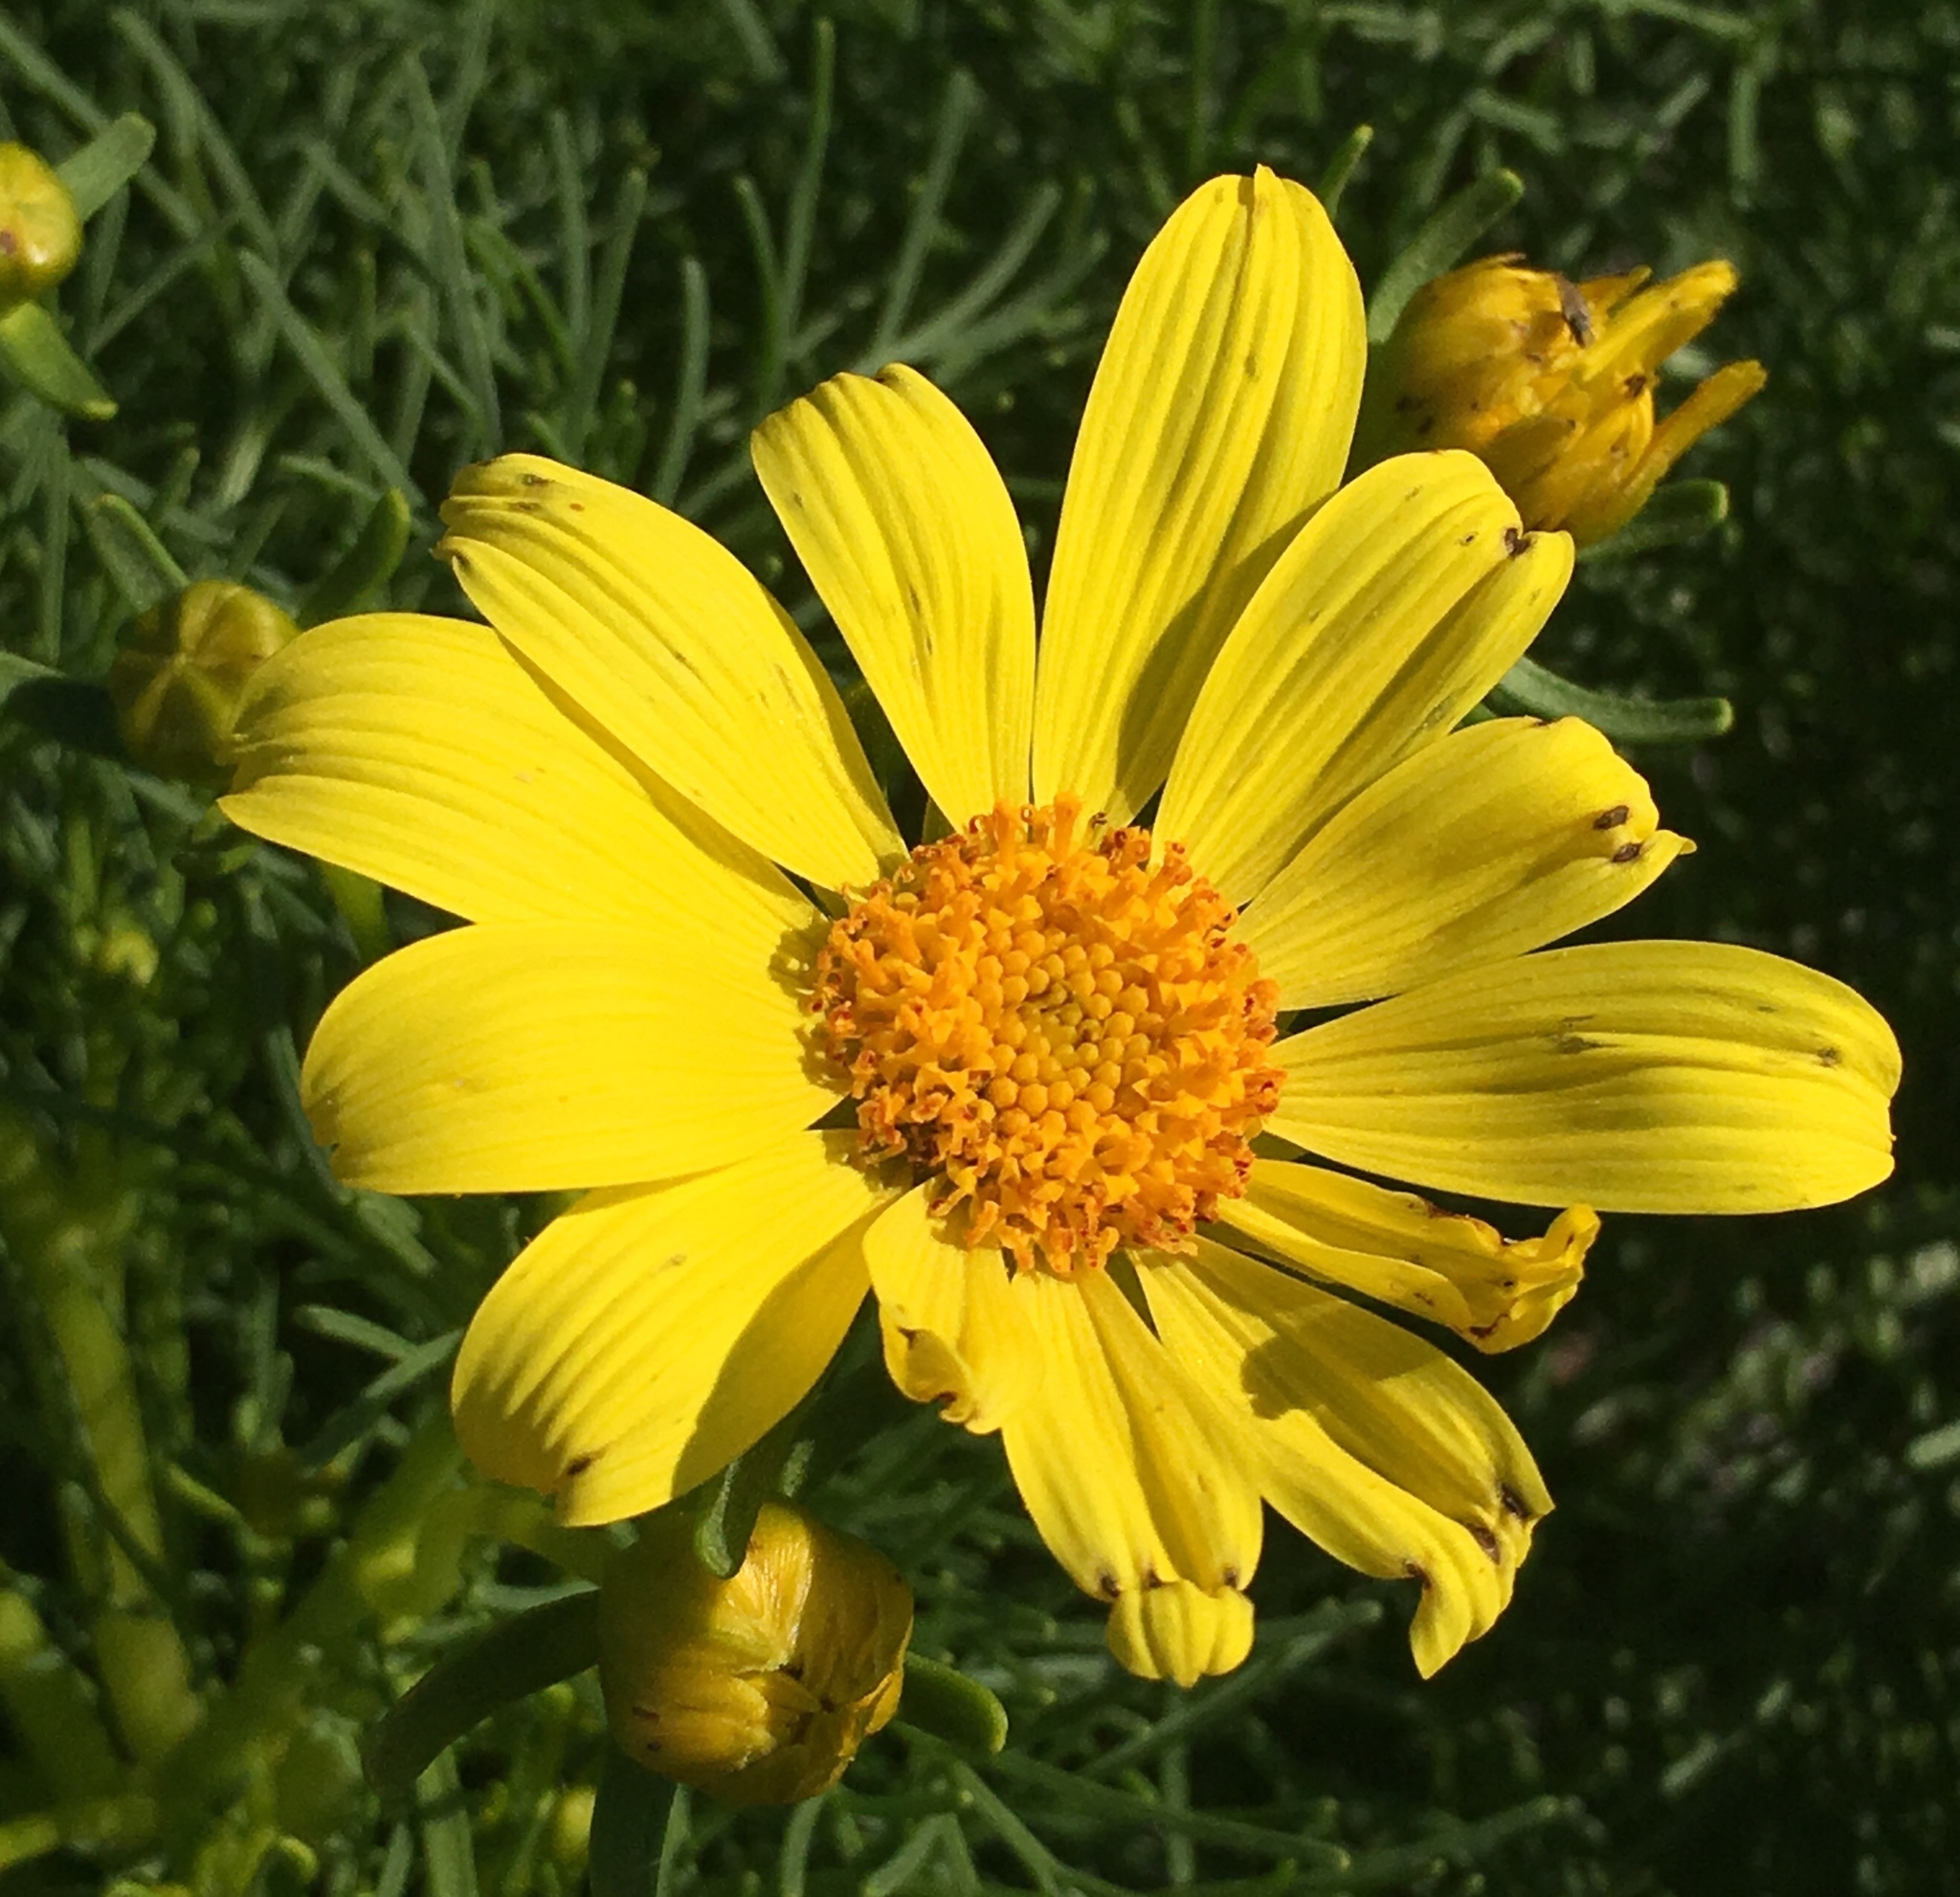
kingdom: Plantae
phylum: Tracheophyta
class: Magnoliopsida
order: Asterales
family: Asteraceae
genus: Coreopsis
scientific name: Coreopsis gigantea
